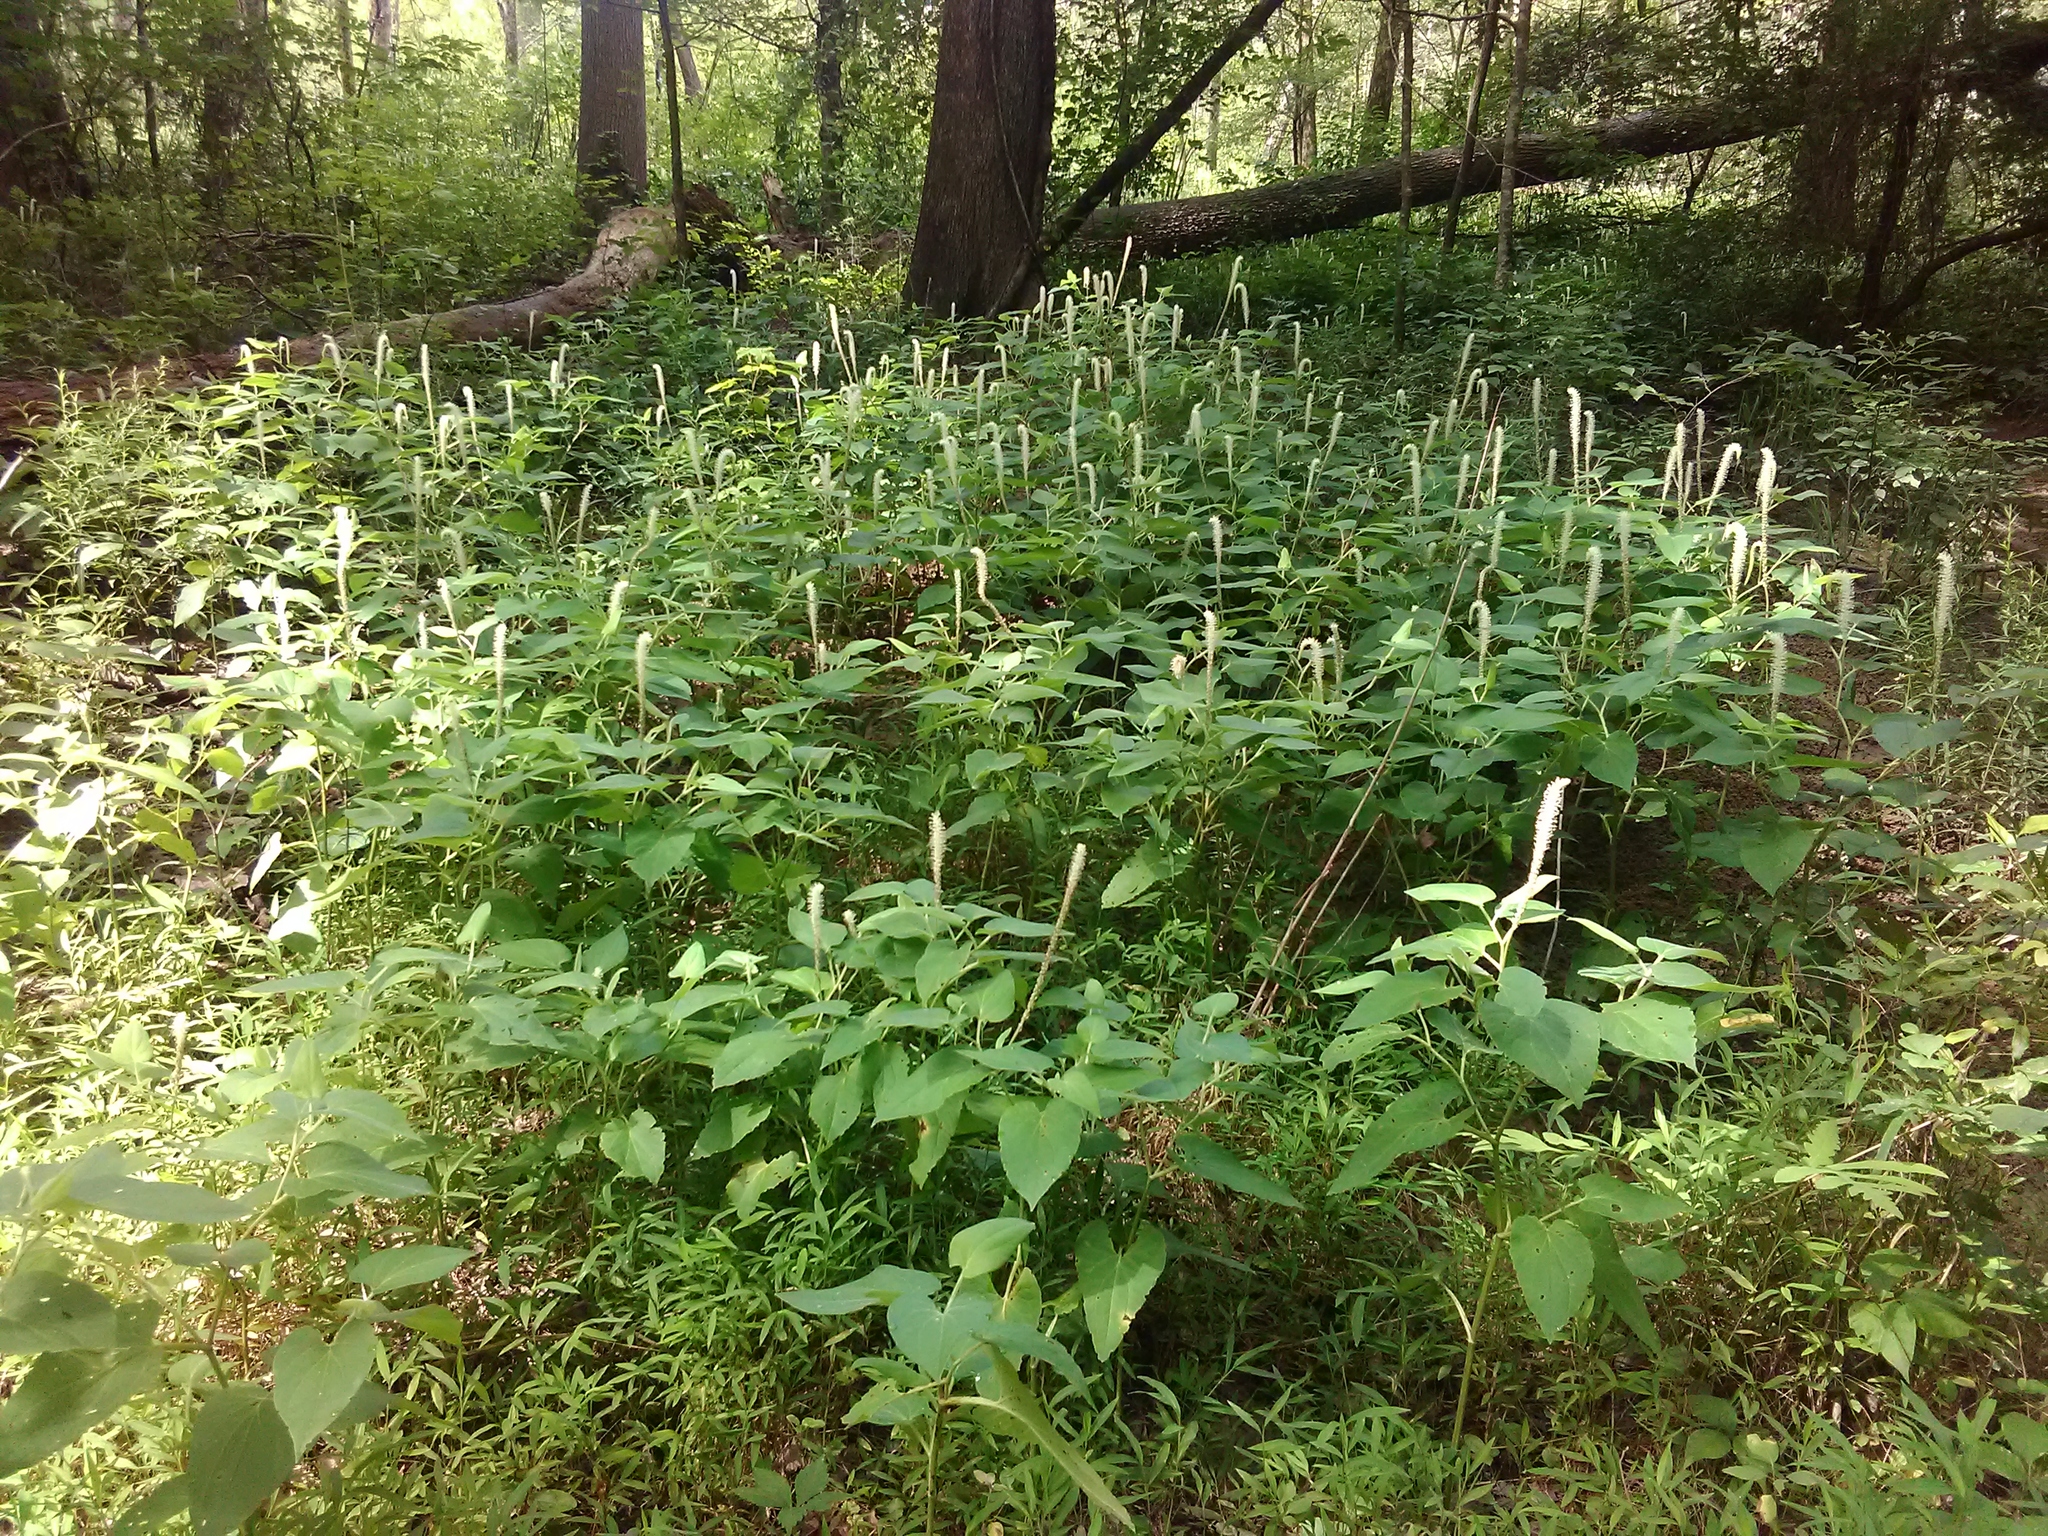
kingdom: Plantae
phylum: Tracheophyta
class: Magnoliopsida
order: Piperales
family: Saururaceae
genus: Saururus
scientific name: Saururus cernuus
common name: Lizard's-tail
